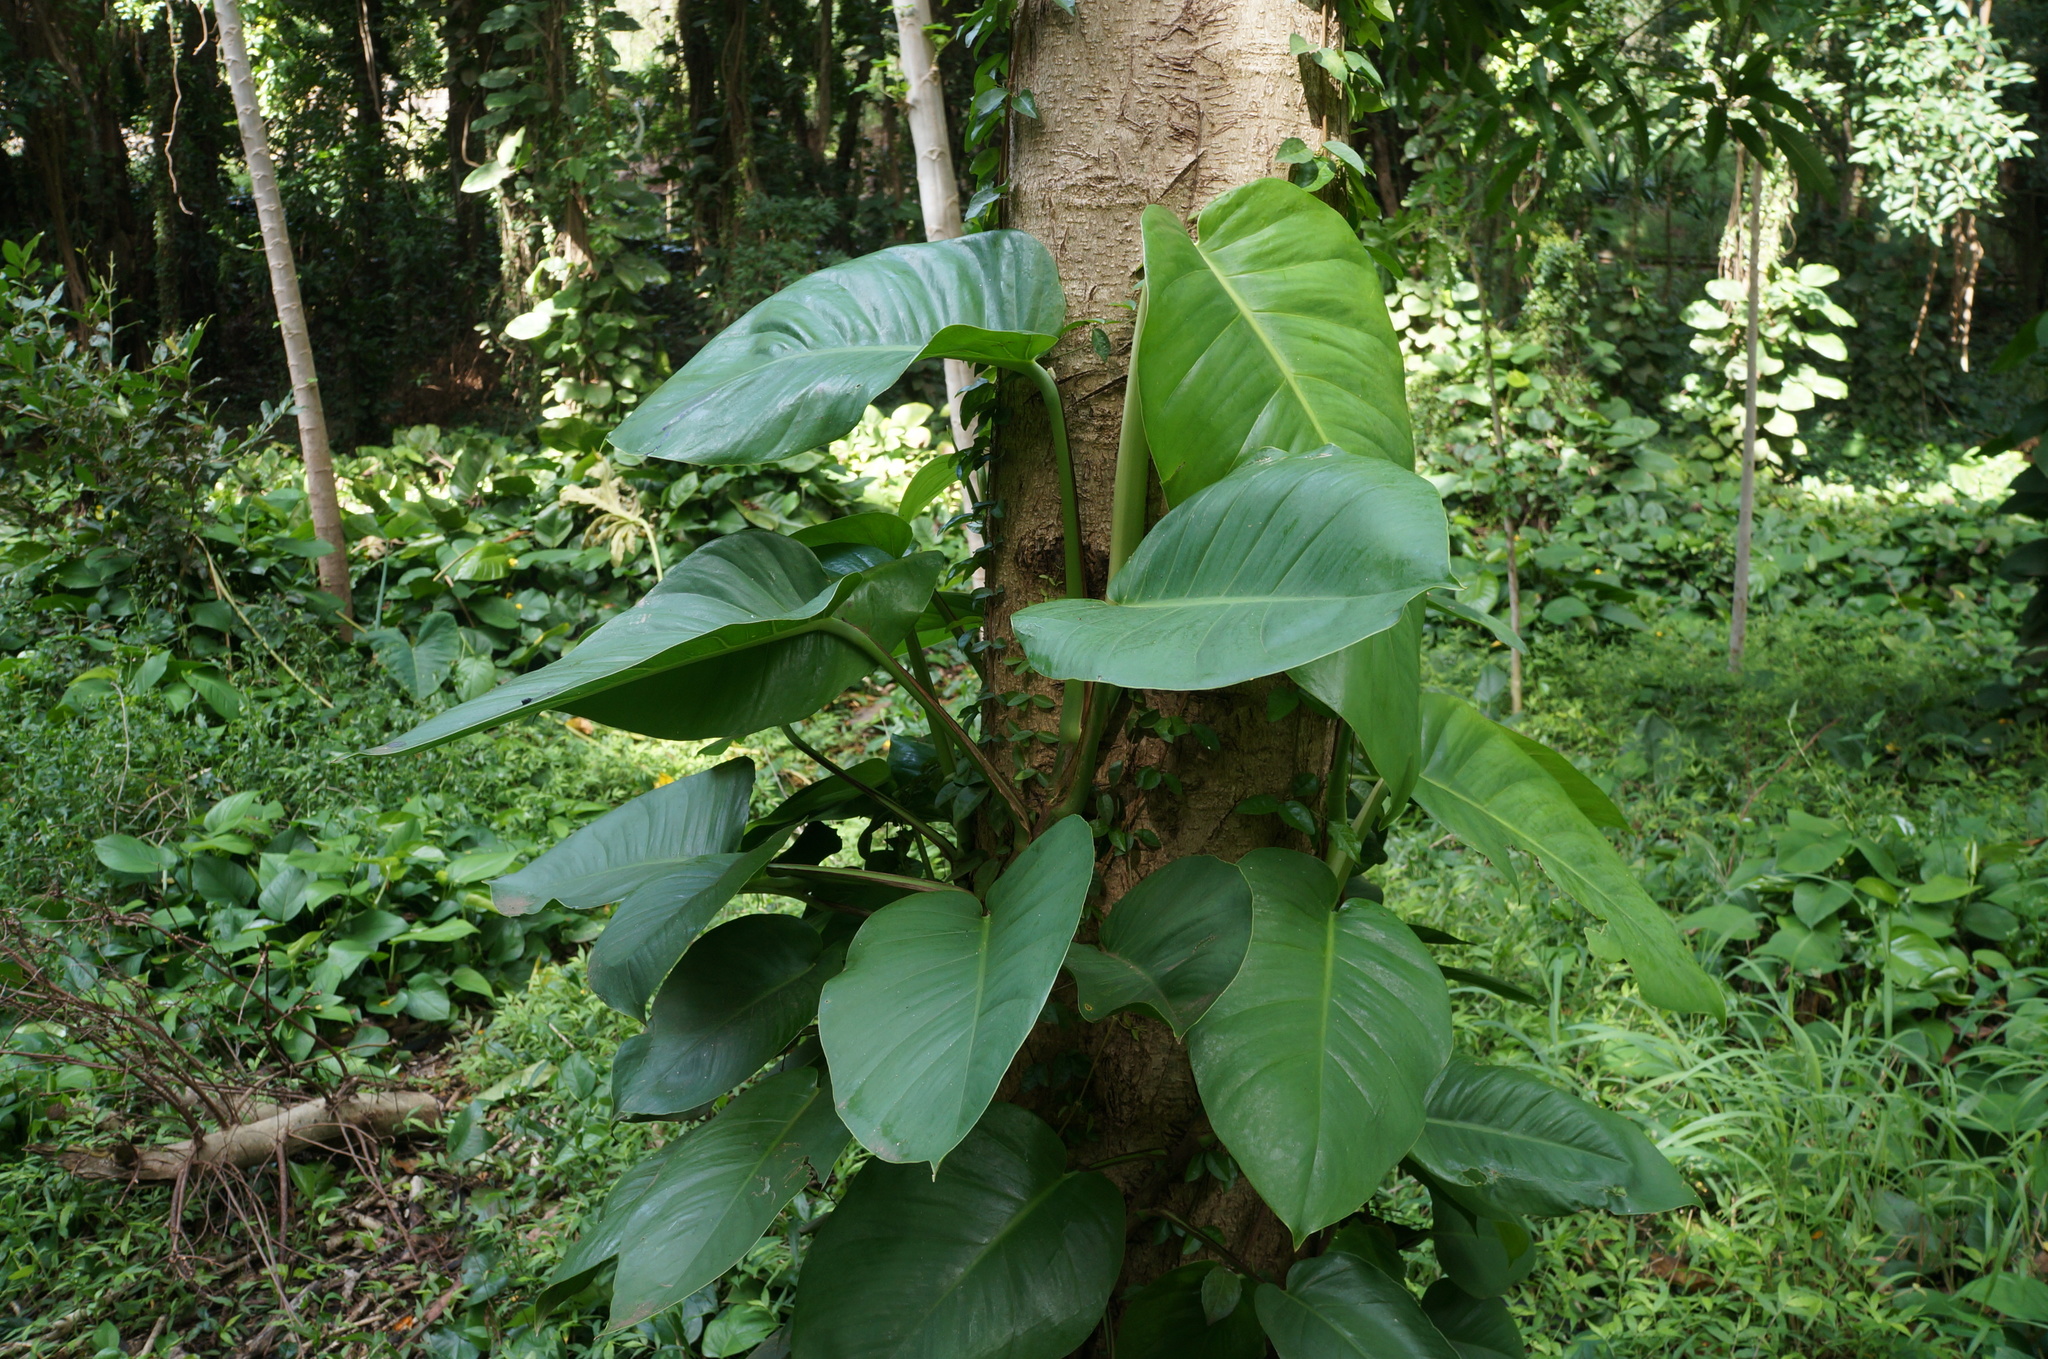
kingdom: Plantae
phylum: Tracheophyta
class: Liliopsida
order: Alismatales
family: Araceae
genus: Epipremnum
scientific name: Epipremnum aureum
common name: Golden hunter's-robe
